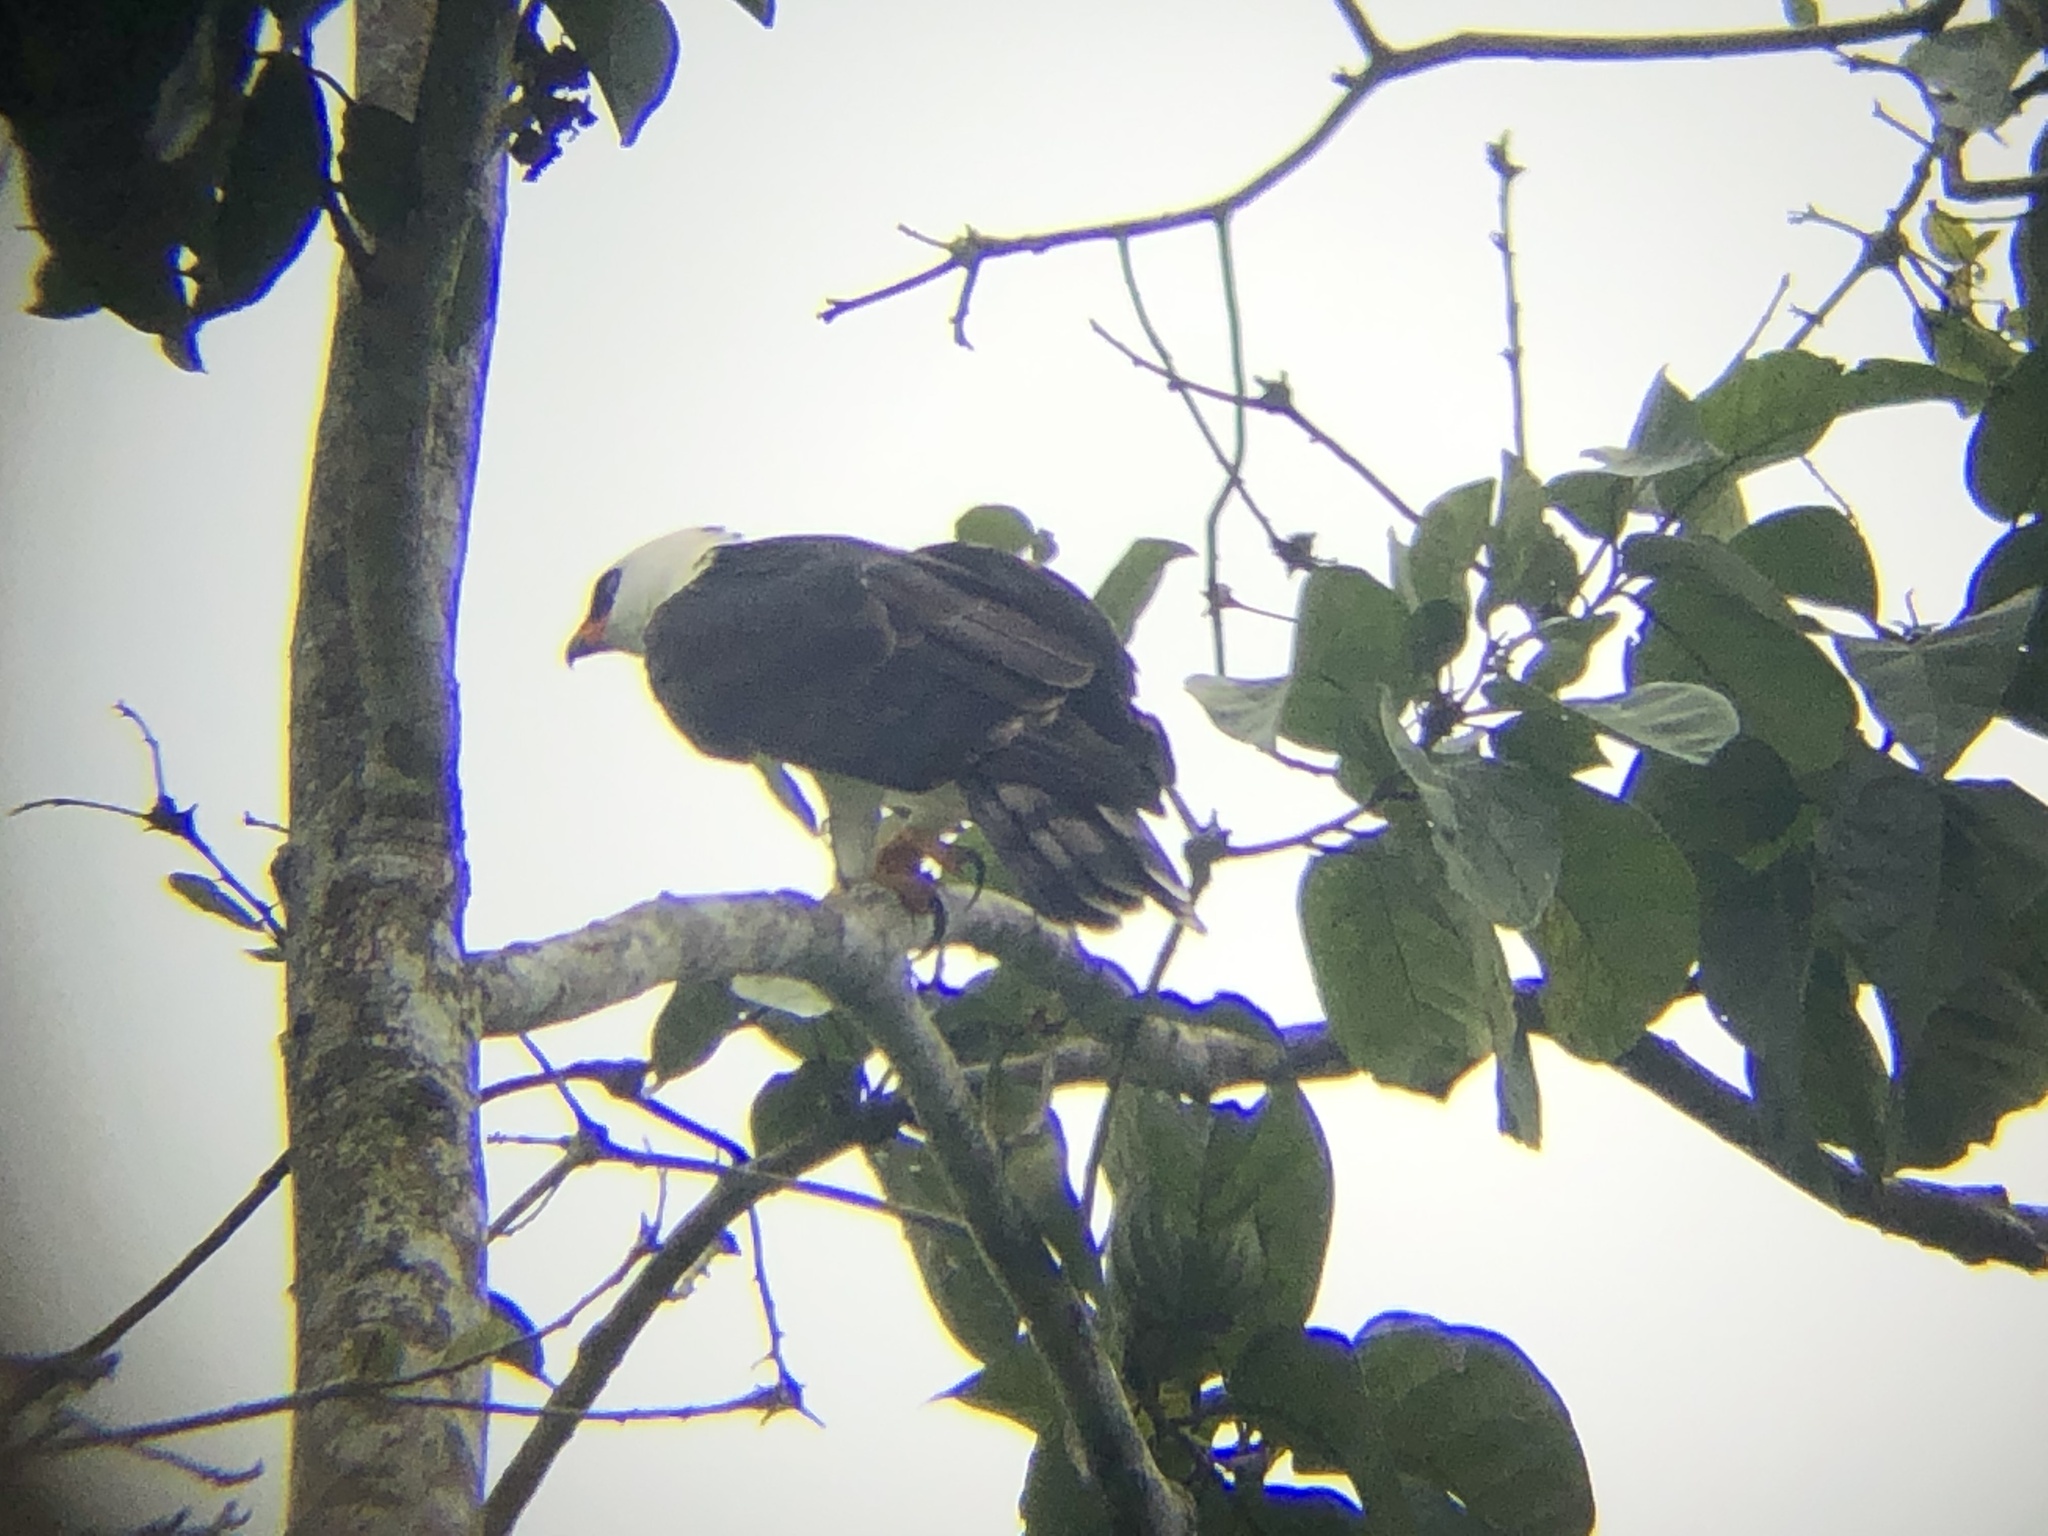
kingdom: Animalia
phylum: Chordata
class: Aves
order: Accipitriformes
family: Accipitridae
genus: Spizaetus
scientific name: Spizaetus melanoleucus
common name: Black-and-white hawk-eagle
